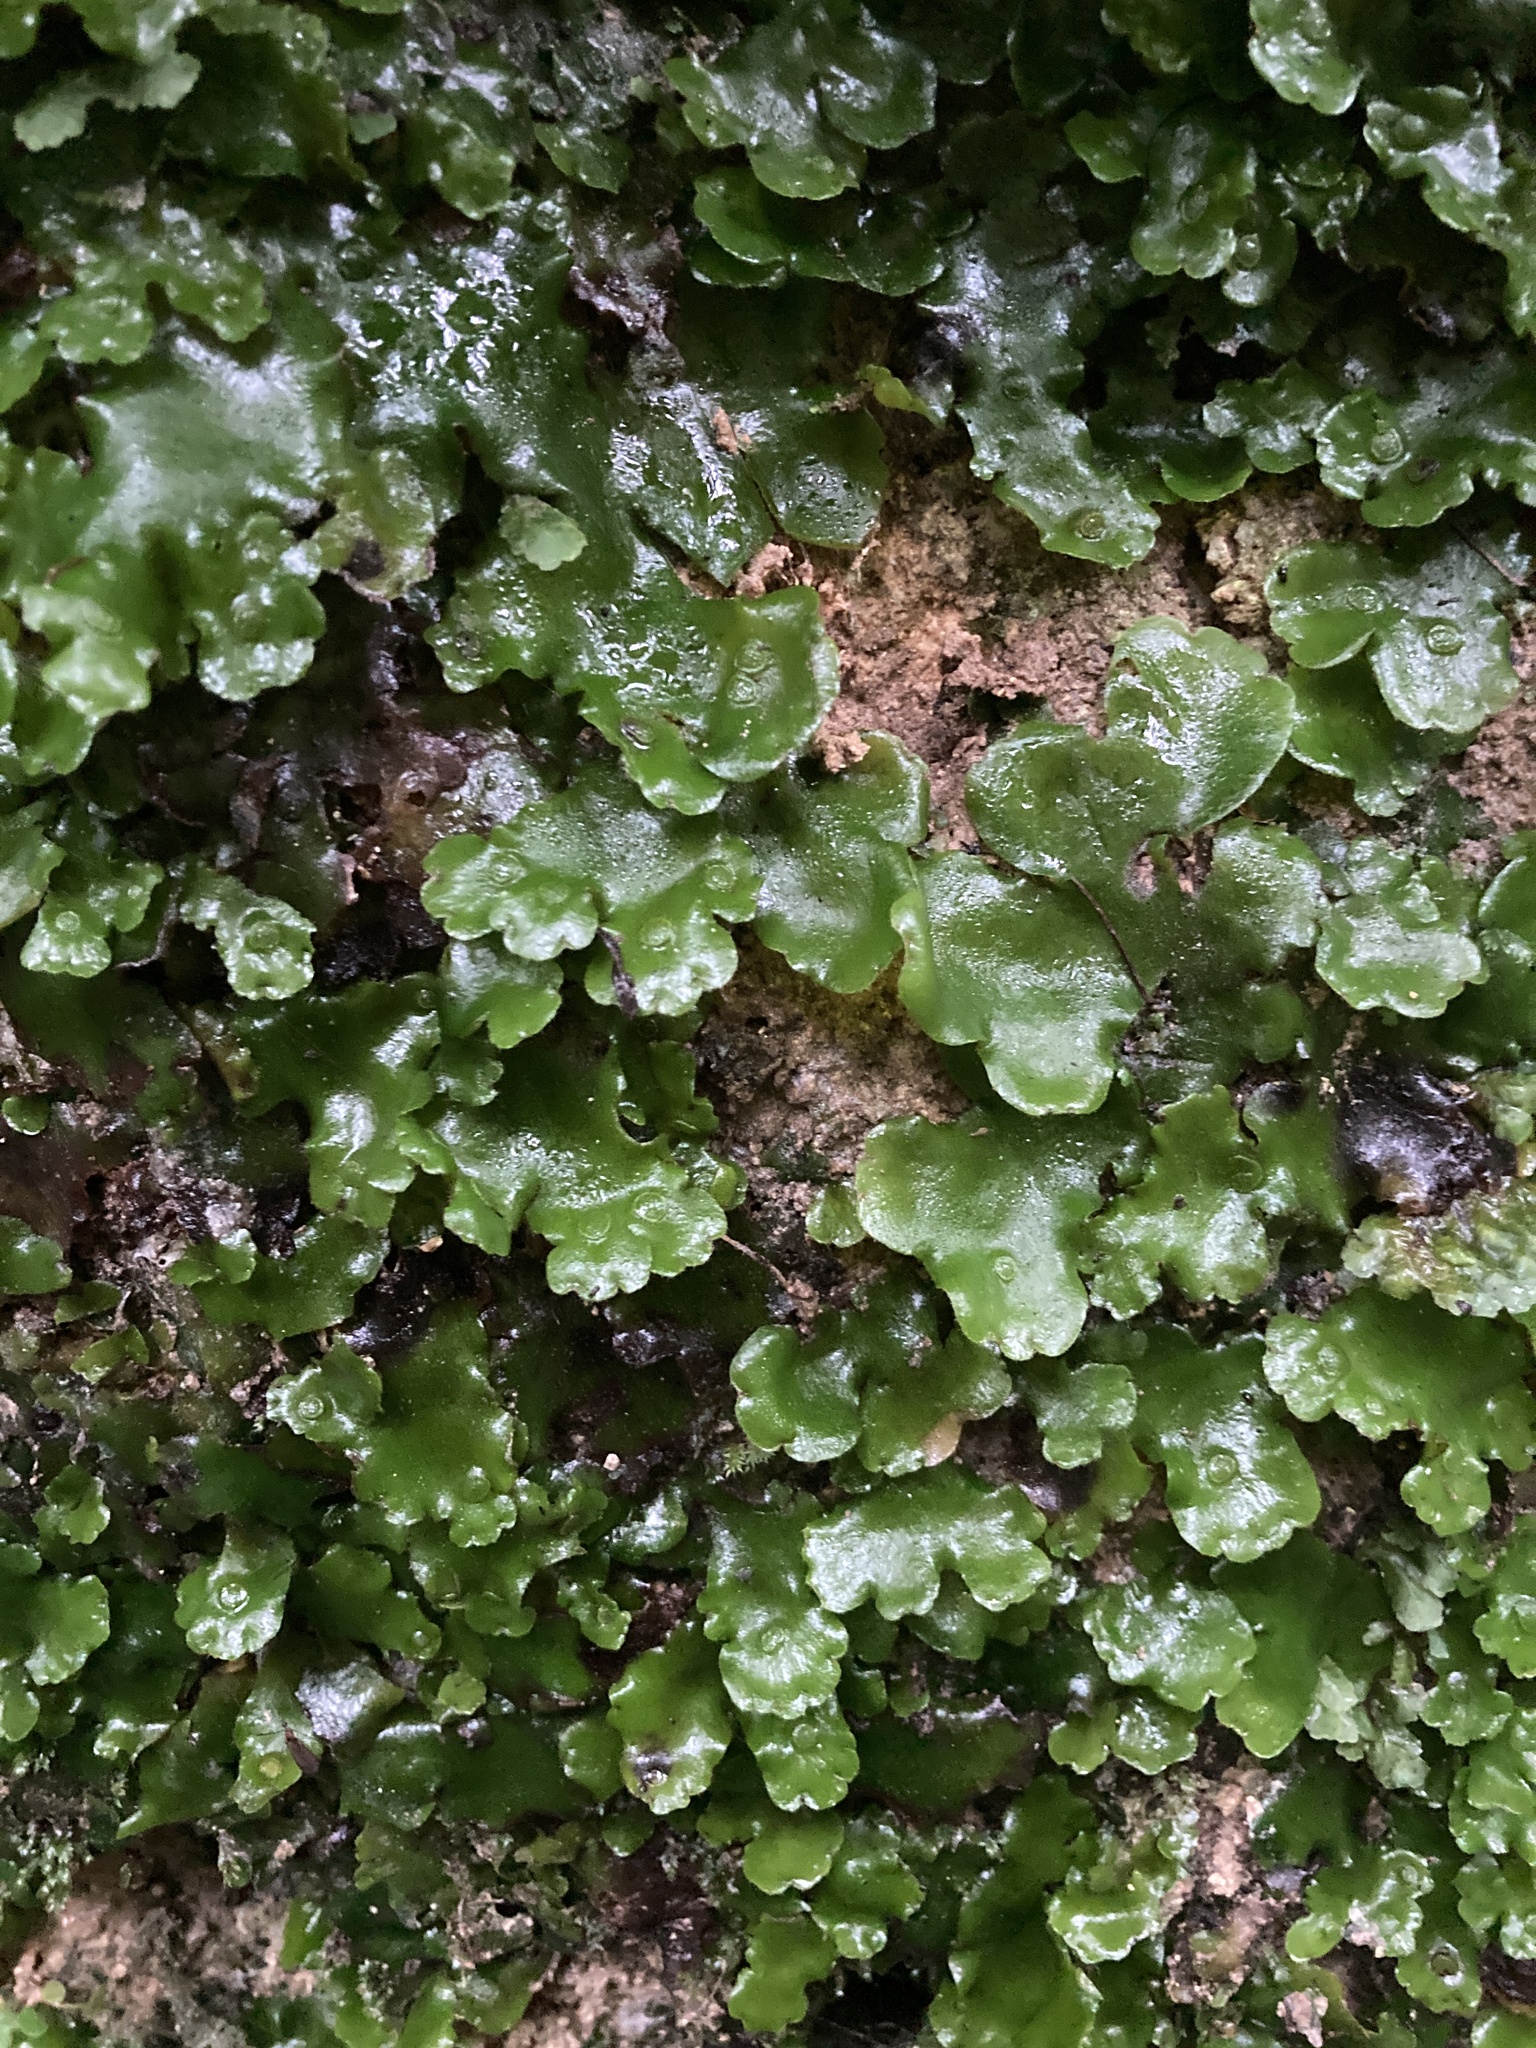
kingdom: Plantae
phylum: Marchantiophyta
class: Marchantiopsida
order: Marchantiales
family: Monocleaceae
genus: Monoclea
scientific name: Monoclea forsteri
